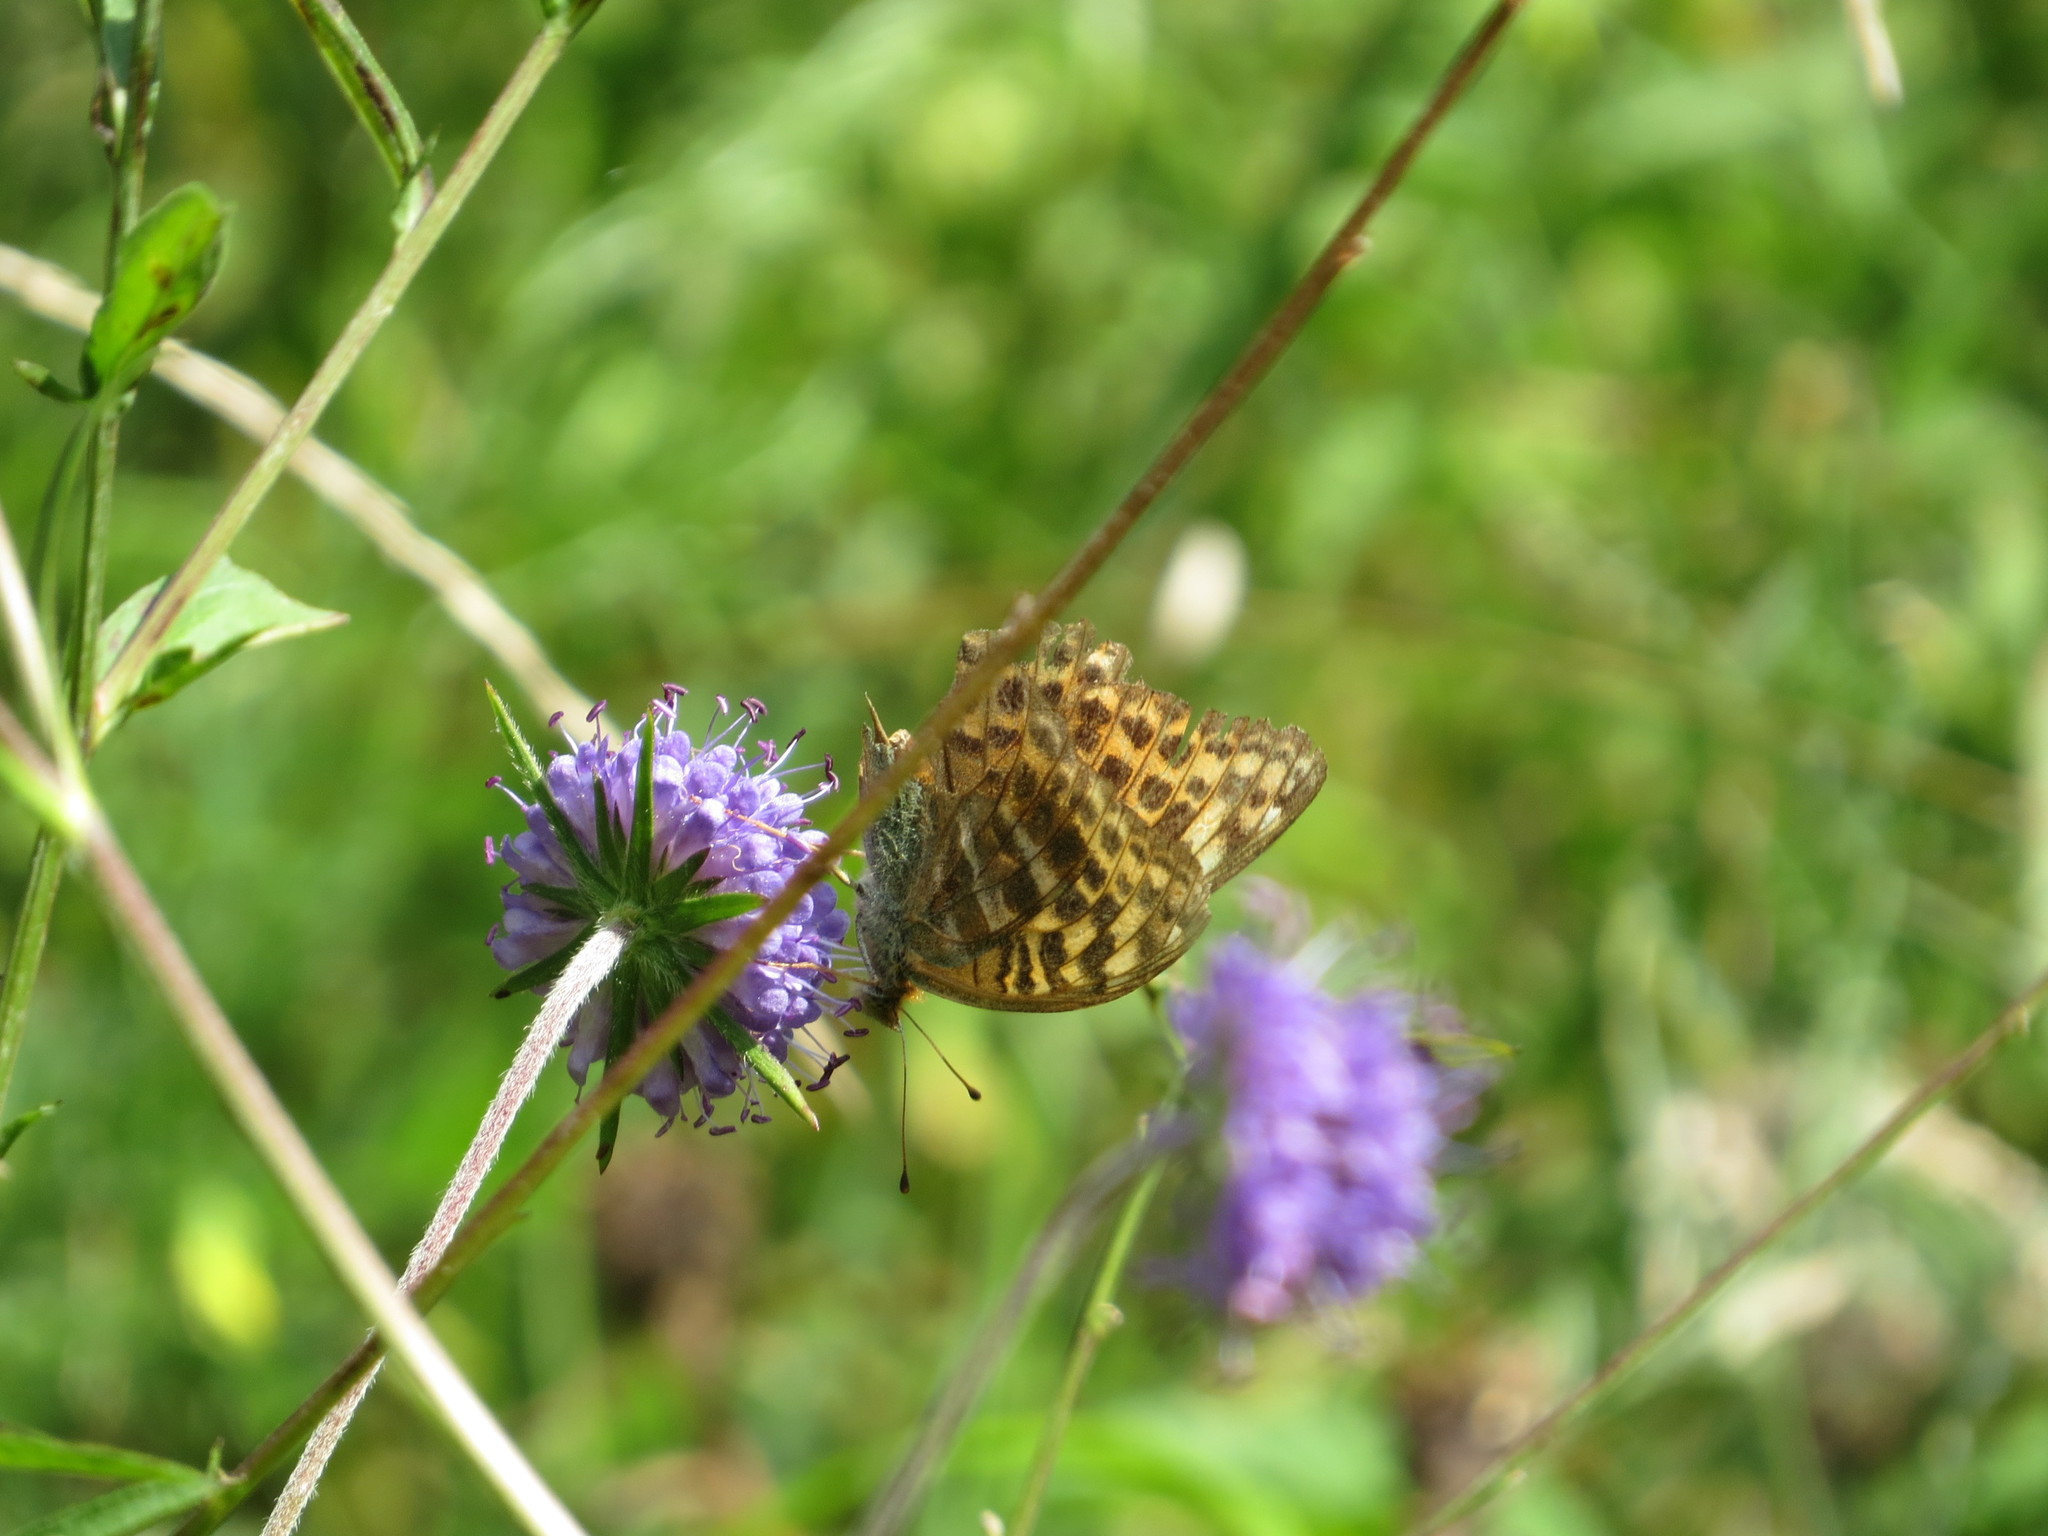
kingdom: Animalia
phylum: Arthropoda
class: Insecta
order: Lepidoptera
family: Nymphalidae
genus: Argynnis
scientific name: Argynnis paphia
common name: Silver-washed fritillary
